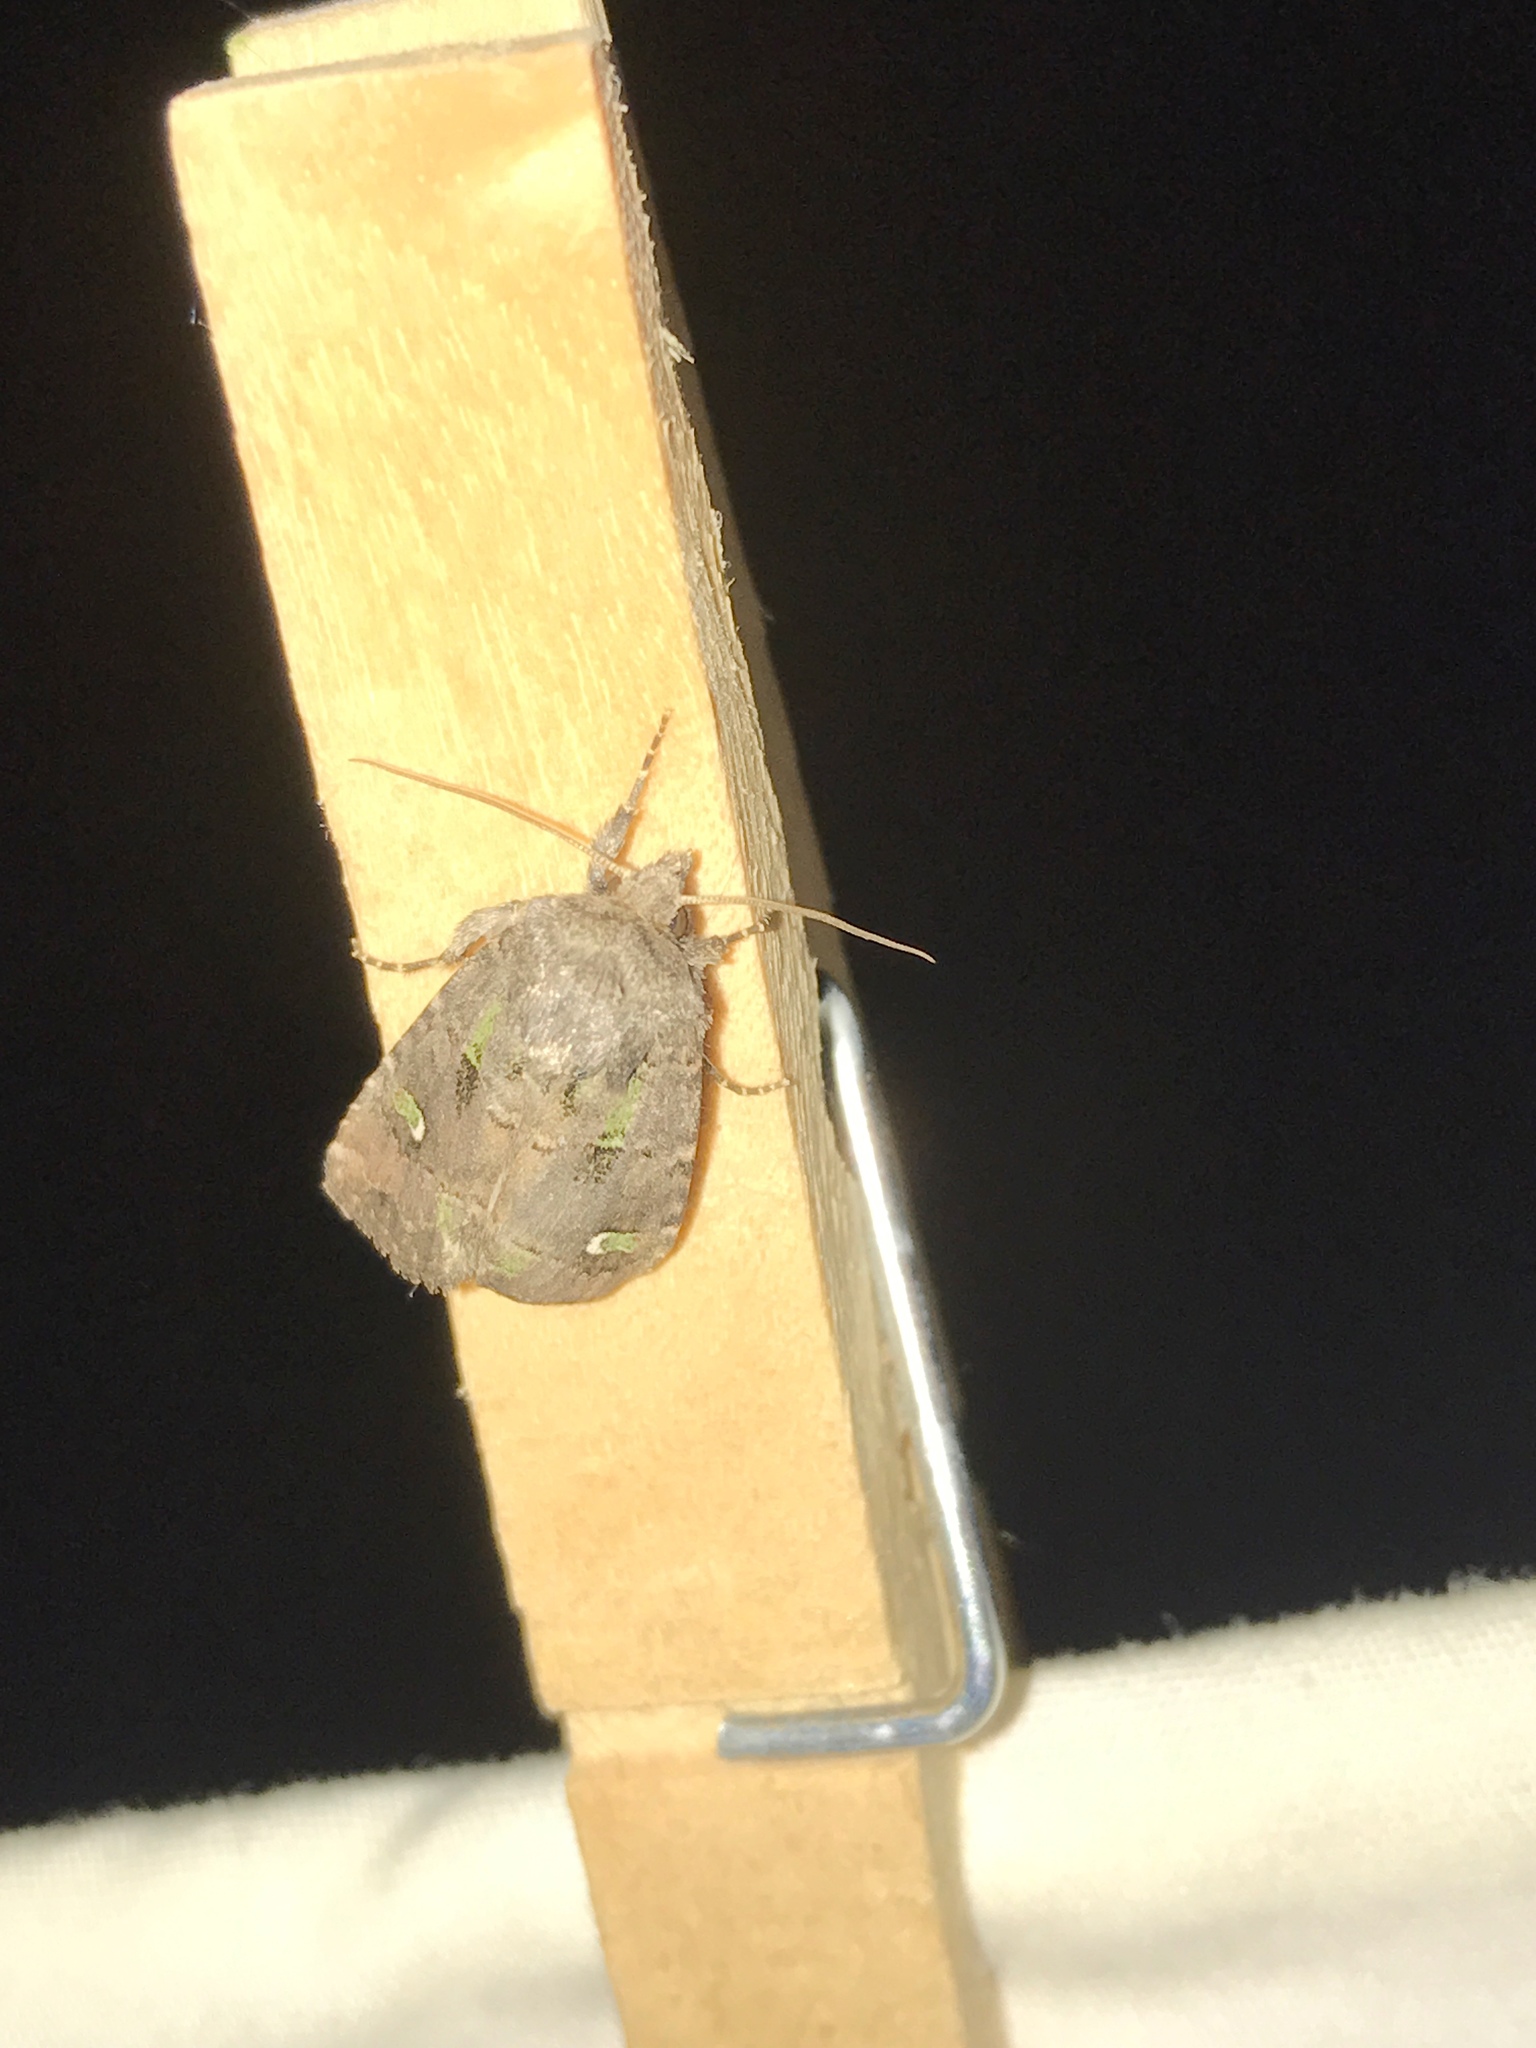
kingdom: Animalia
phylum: Arthropoda
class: Insecta
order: Lepidoptera
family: Noctuidae
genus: Lacinipolia
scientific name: Lacinipolia renigera
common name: Kidney-spotted minor
